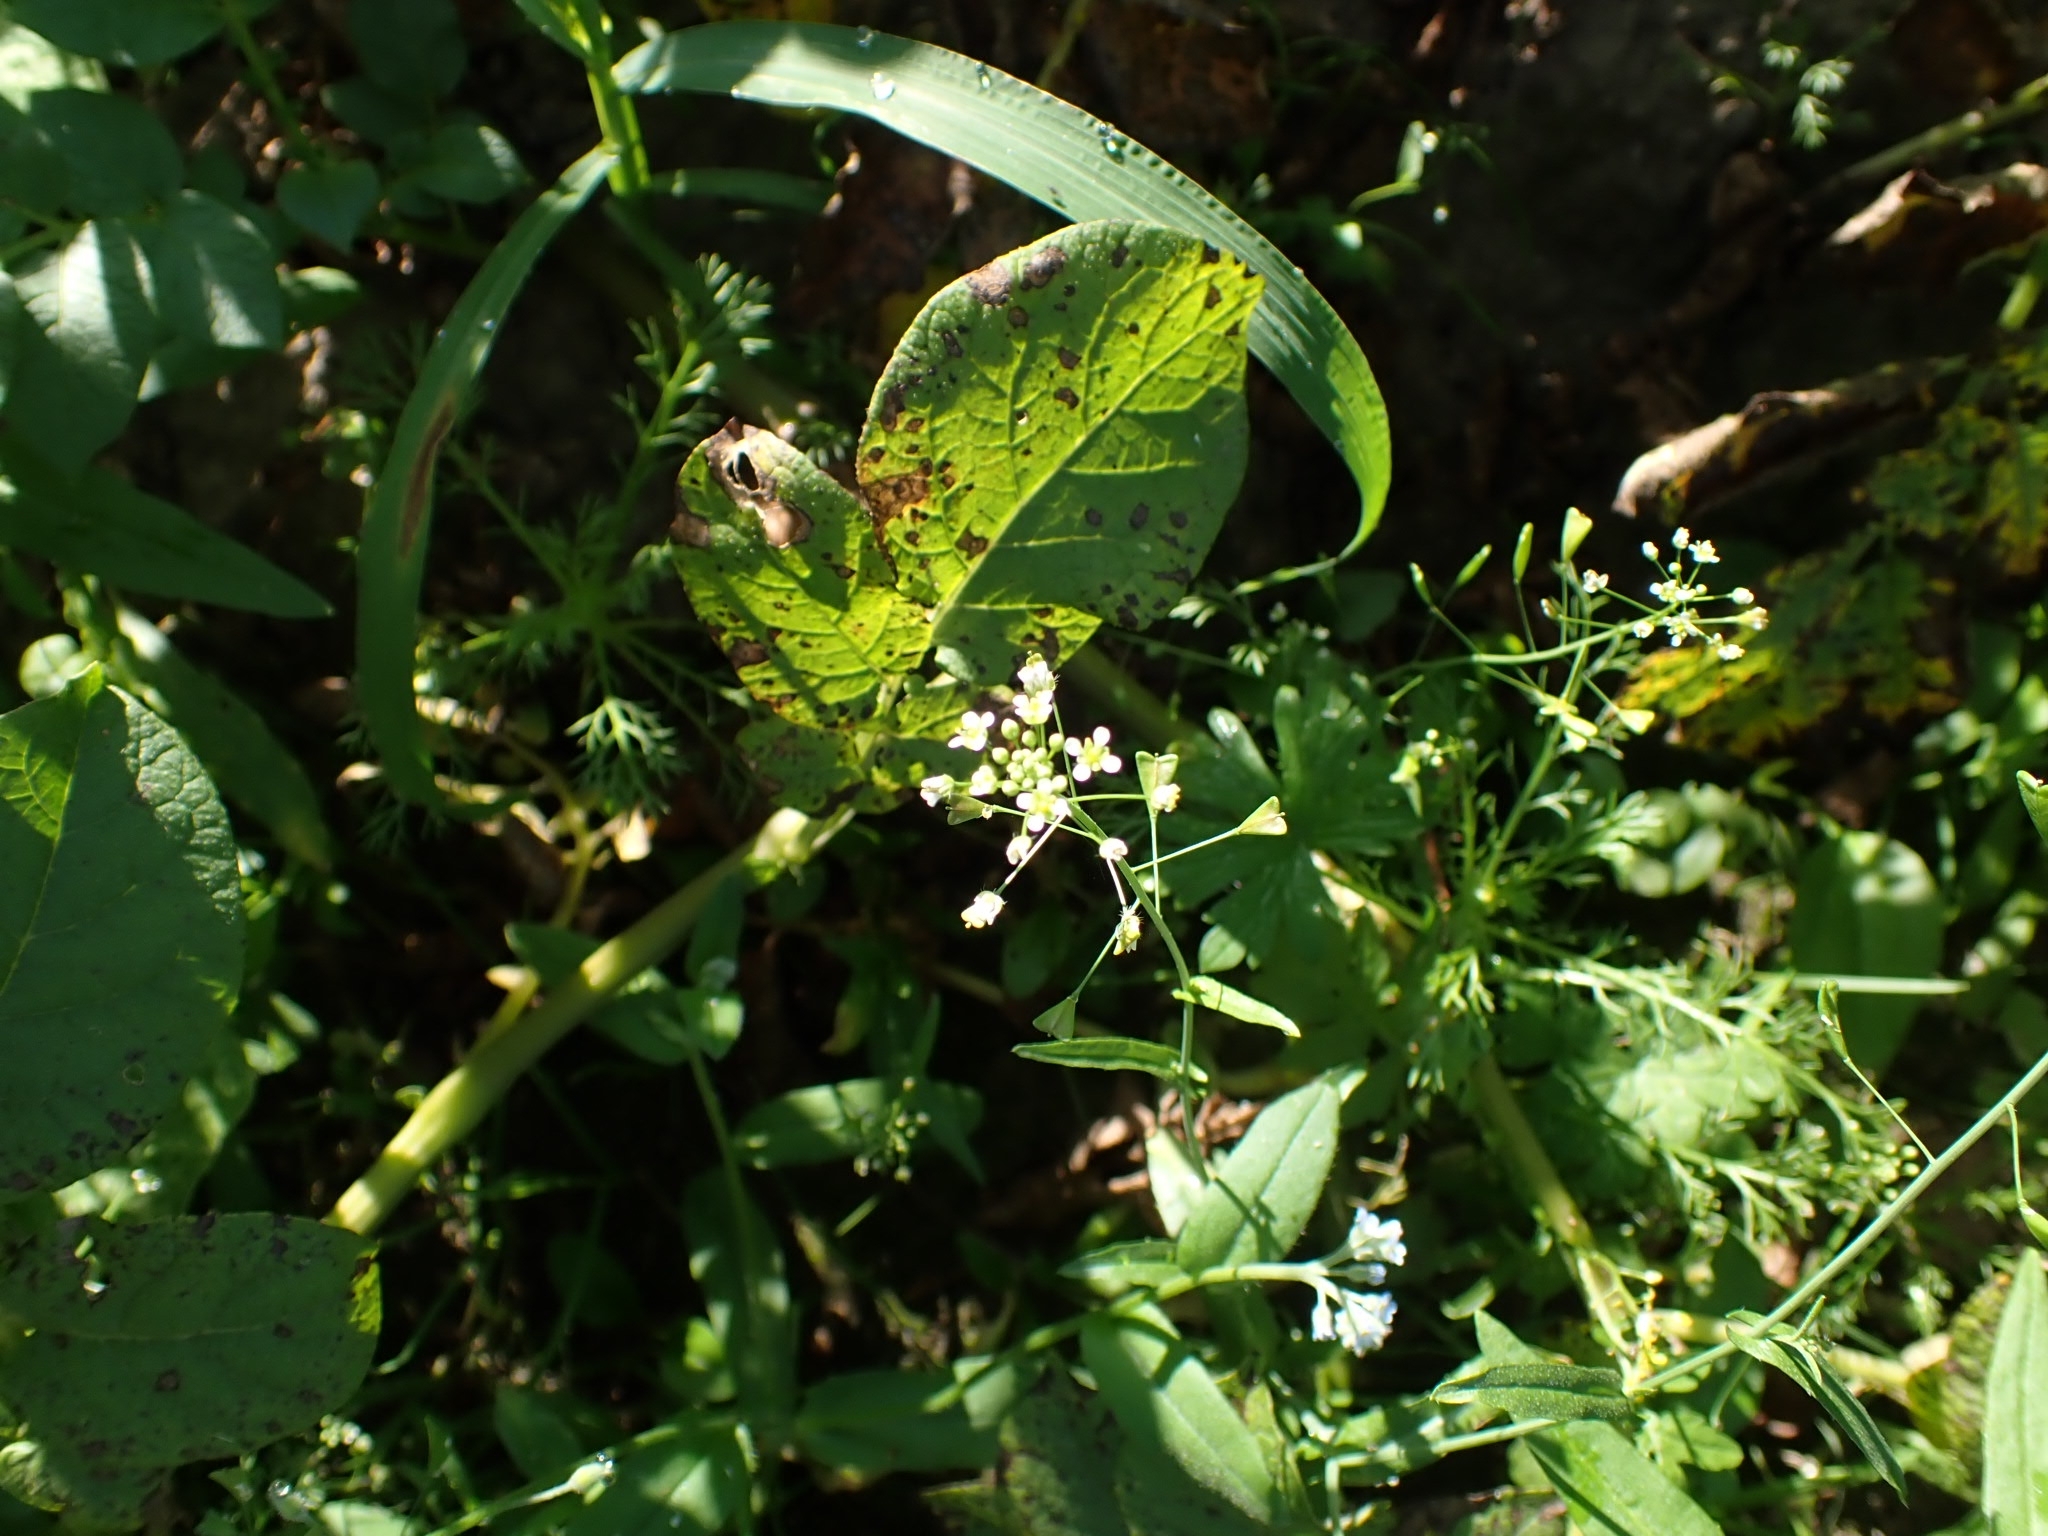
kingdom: Plantae
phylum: Tracheophyta
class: Magnoliopsida
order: Brassicales
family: Brassicaceae
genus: Capsella
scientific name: Capsella bursa-pastoris
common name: Shepherd's purse
